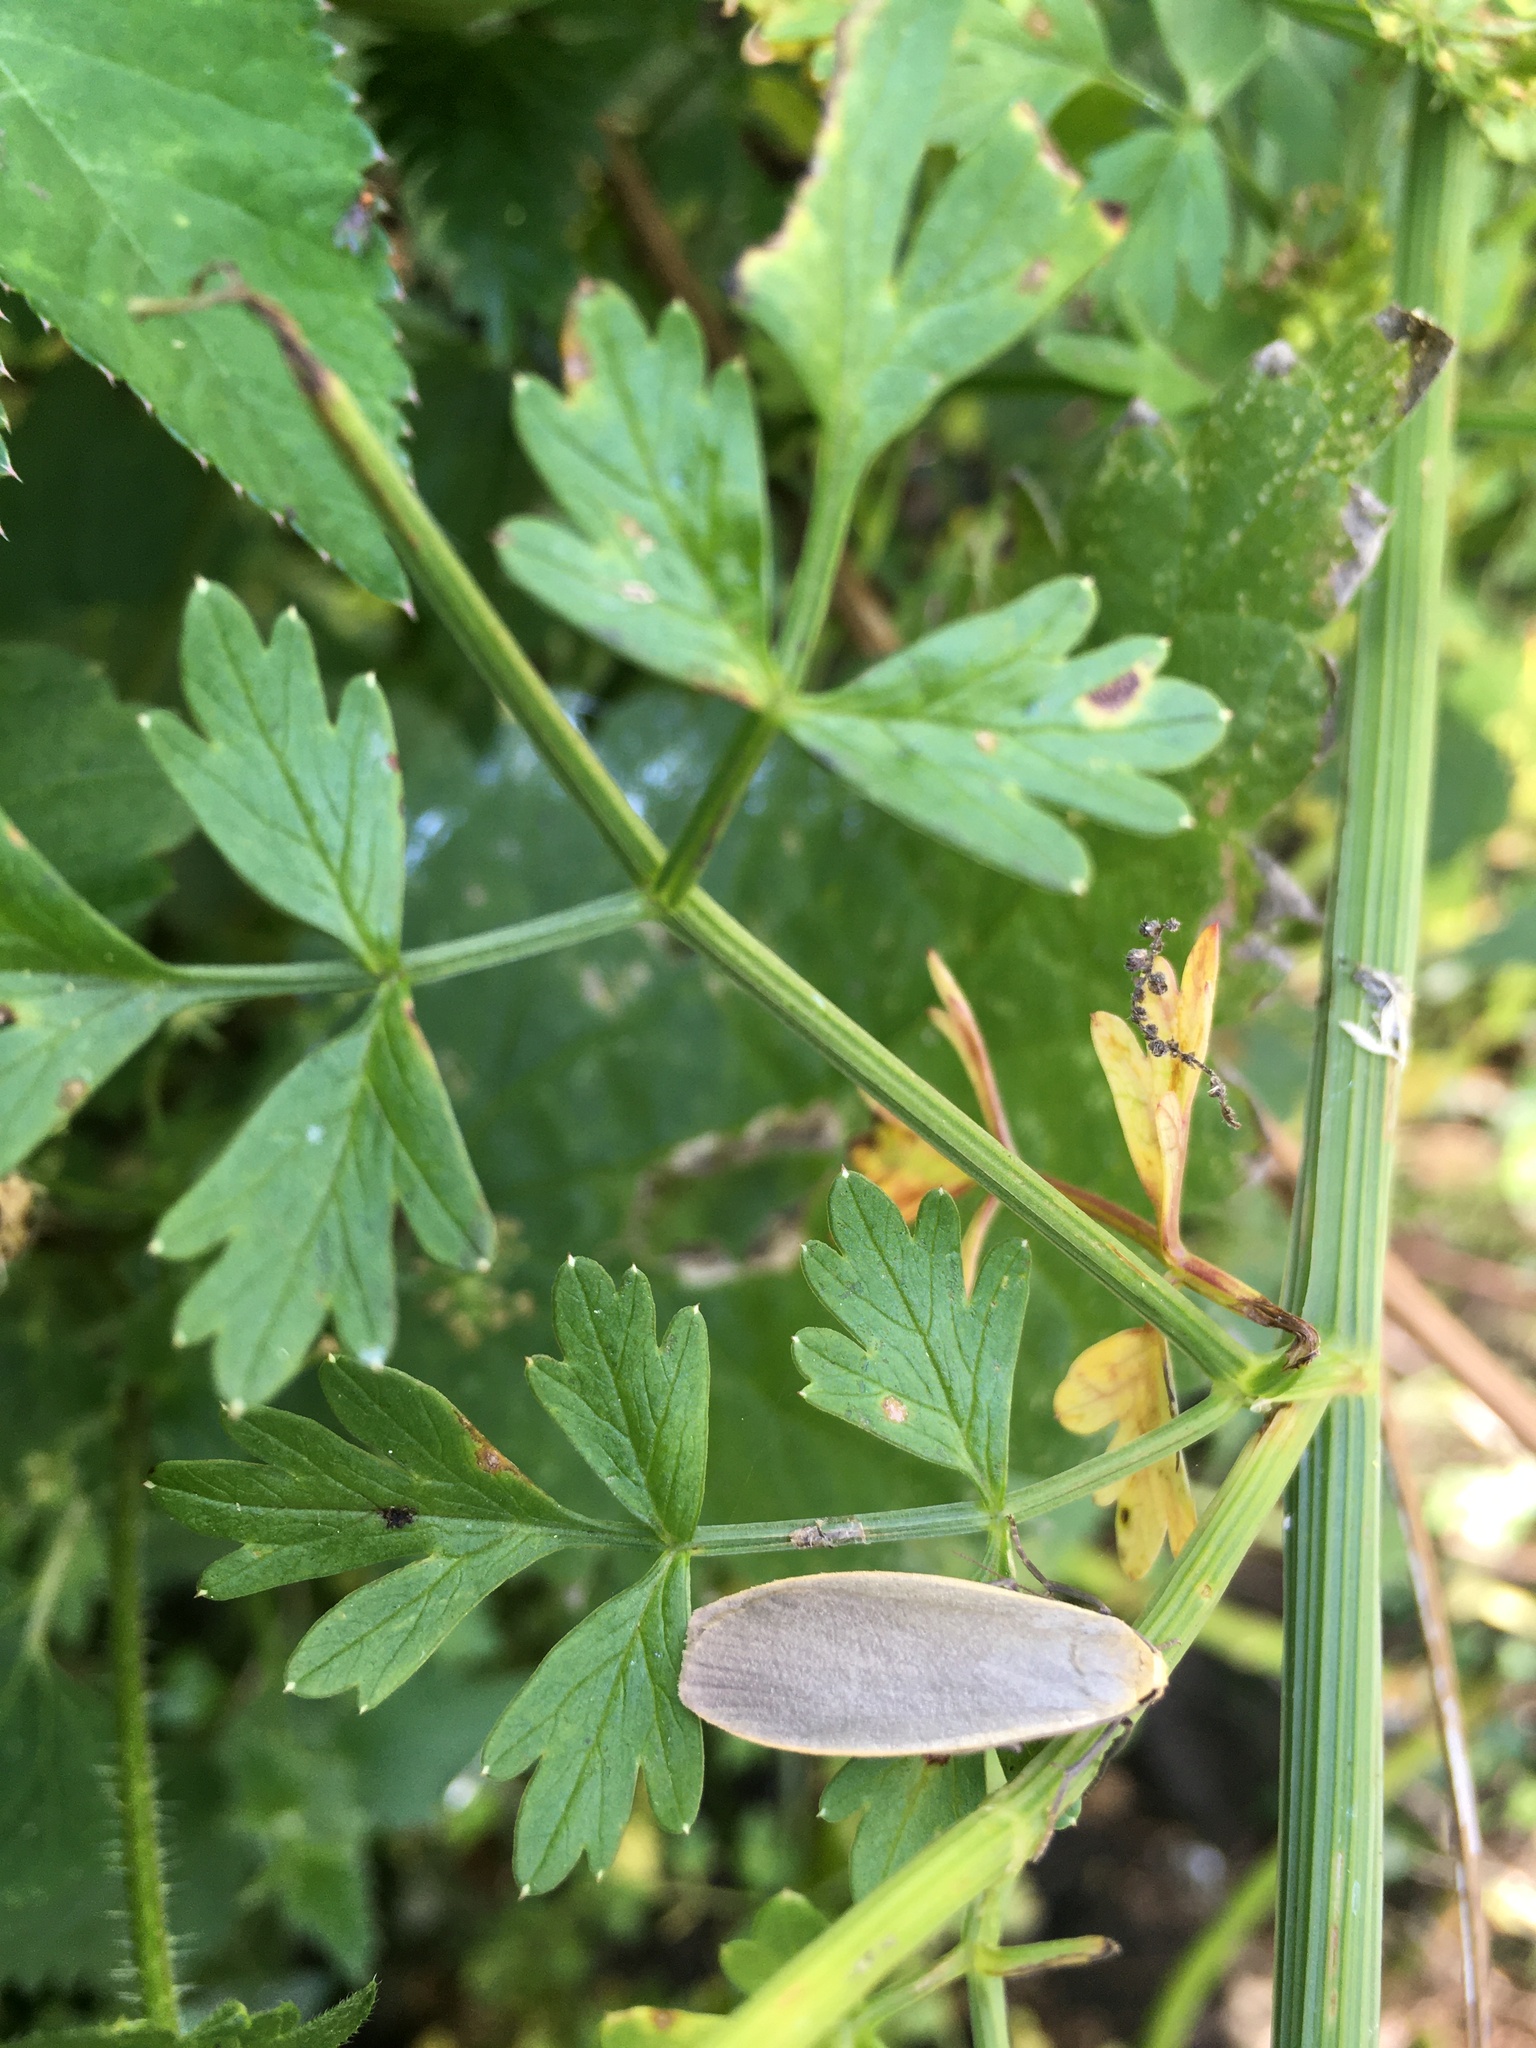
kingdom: Animalia
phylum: Arthropoda
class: Insecta
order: Lepidoptera
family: Erebidae
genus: Collita
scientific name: Collita griseola
